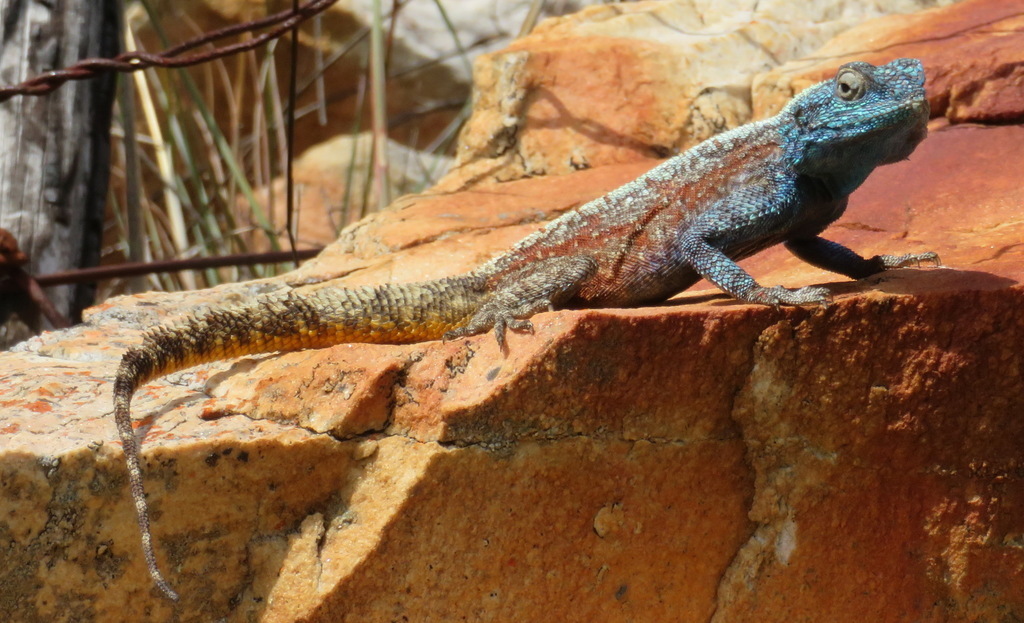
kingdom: Animalia
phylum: Chordata
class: Squamata
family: Agamidae
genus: Agama
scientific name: Agama atra
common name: Southern african rock agama
